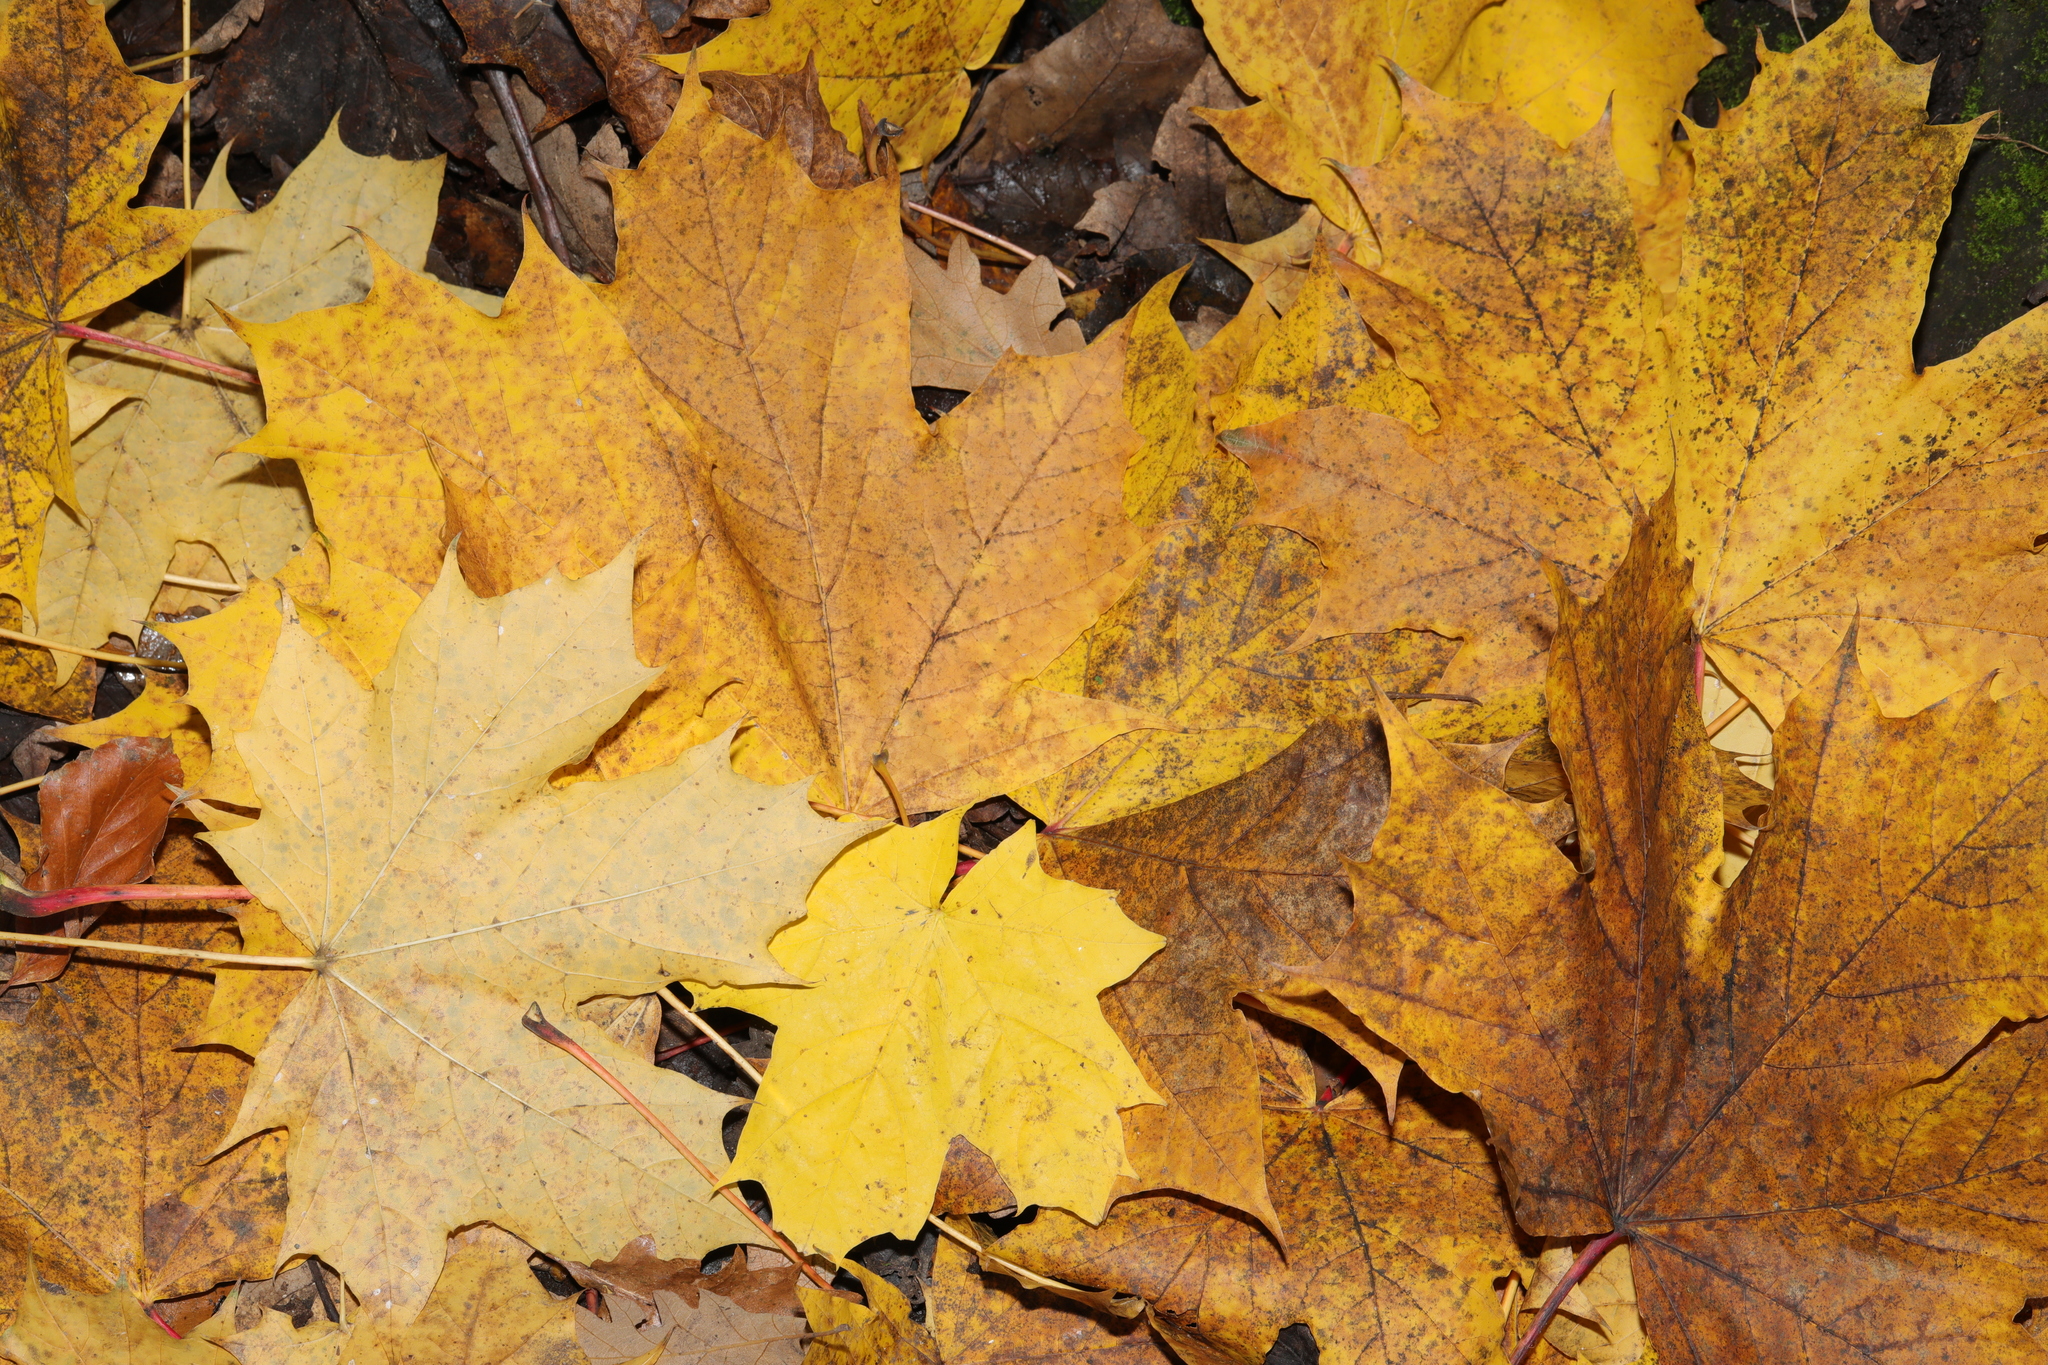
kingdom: Plantae
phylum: Tracheophyta
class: Magnoliopsida
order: Sapindales
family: Sapindaceae
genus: Acer
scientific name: Acer platanoides
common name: Norway maple
